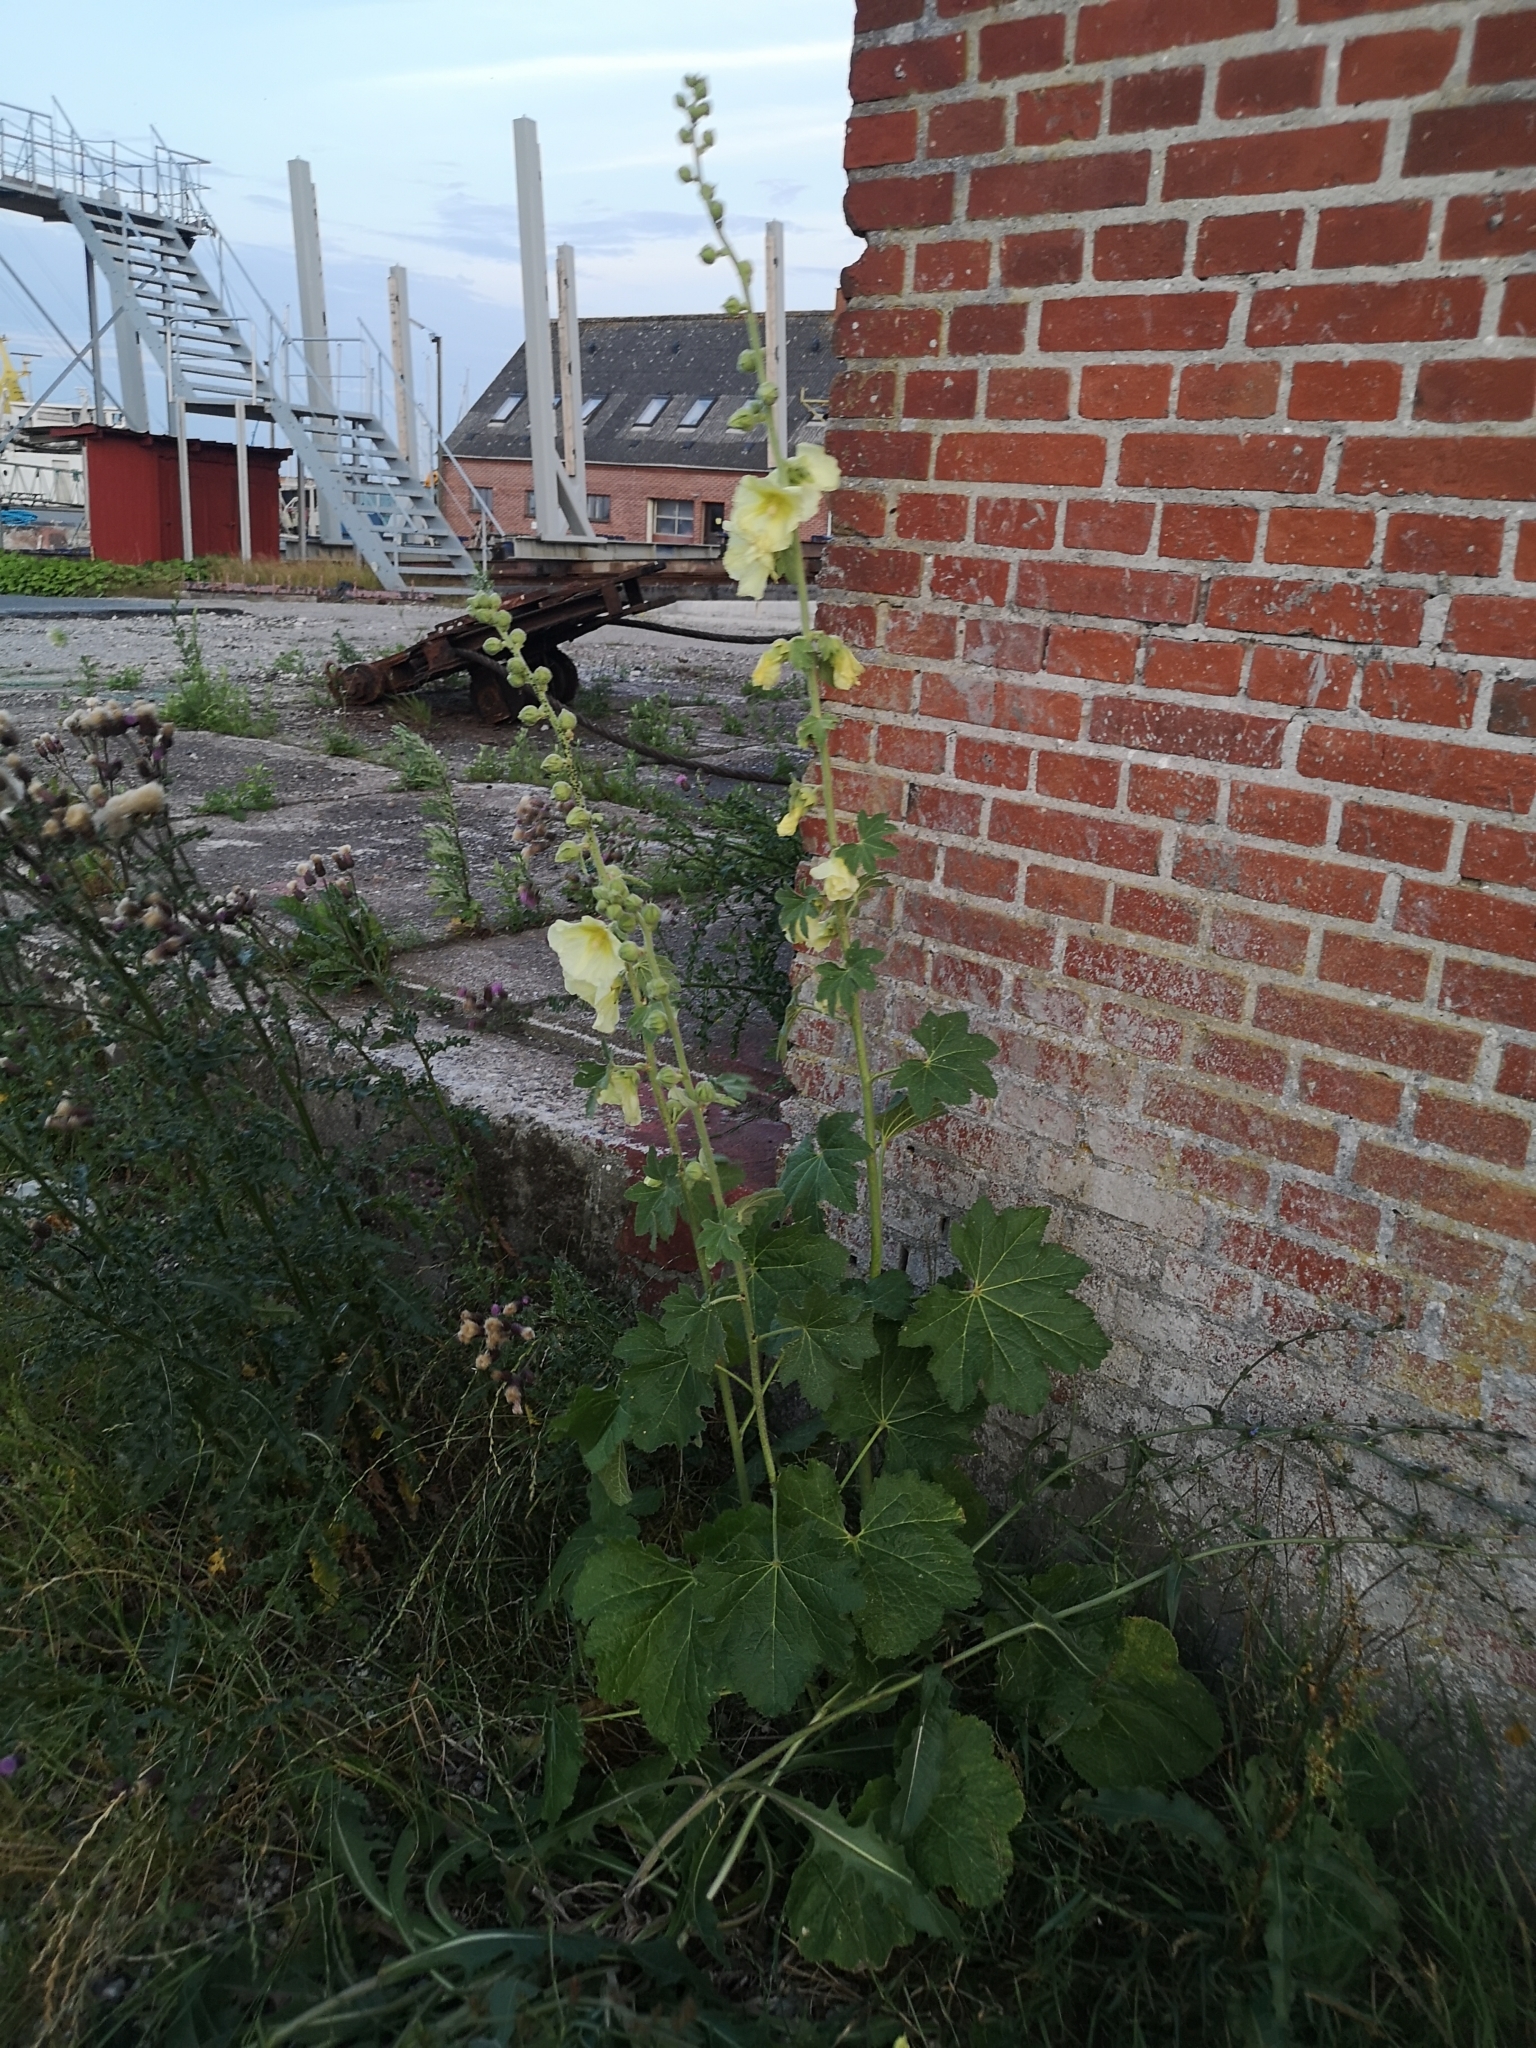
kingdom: Plantae
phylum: Tracheophyta
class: Magnoliopsida
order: Malvales
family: Malvaceae
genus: Alcea
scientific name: Alcea rosea
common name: Hollyhock
